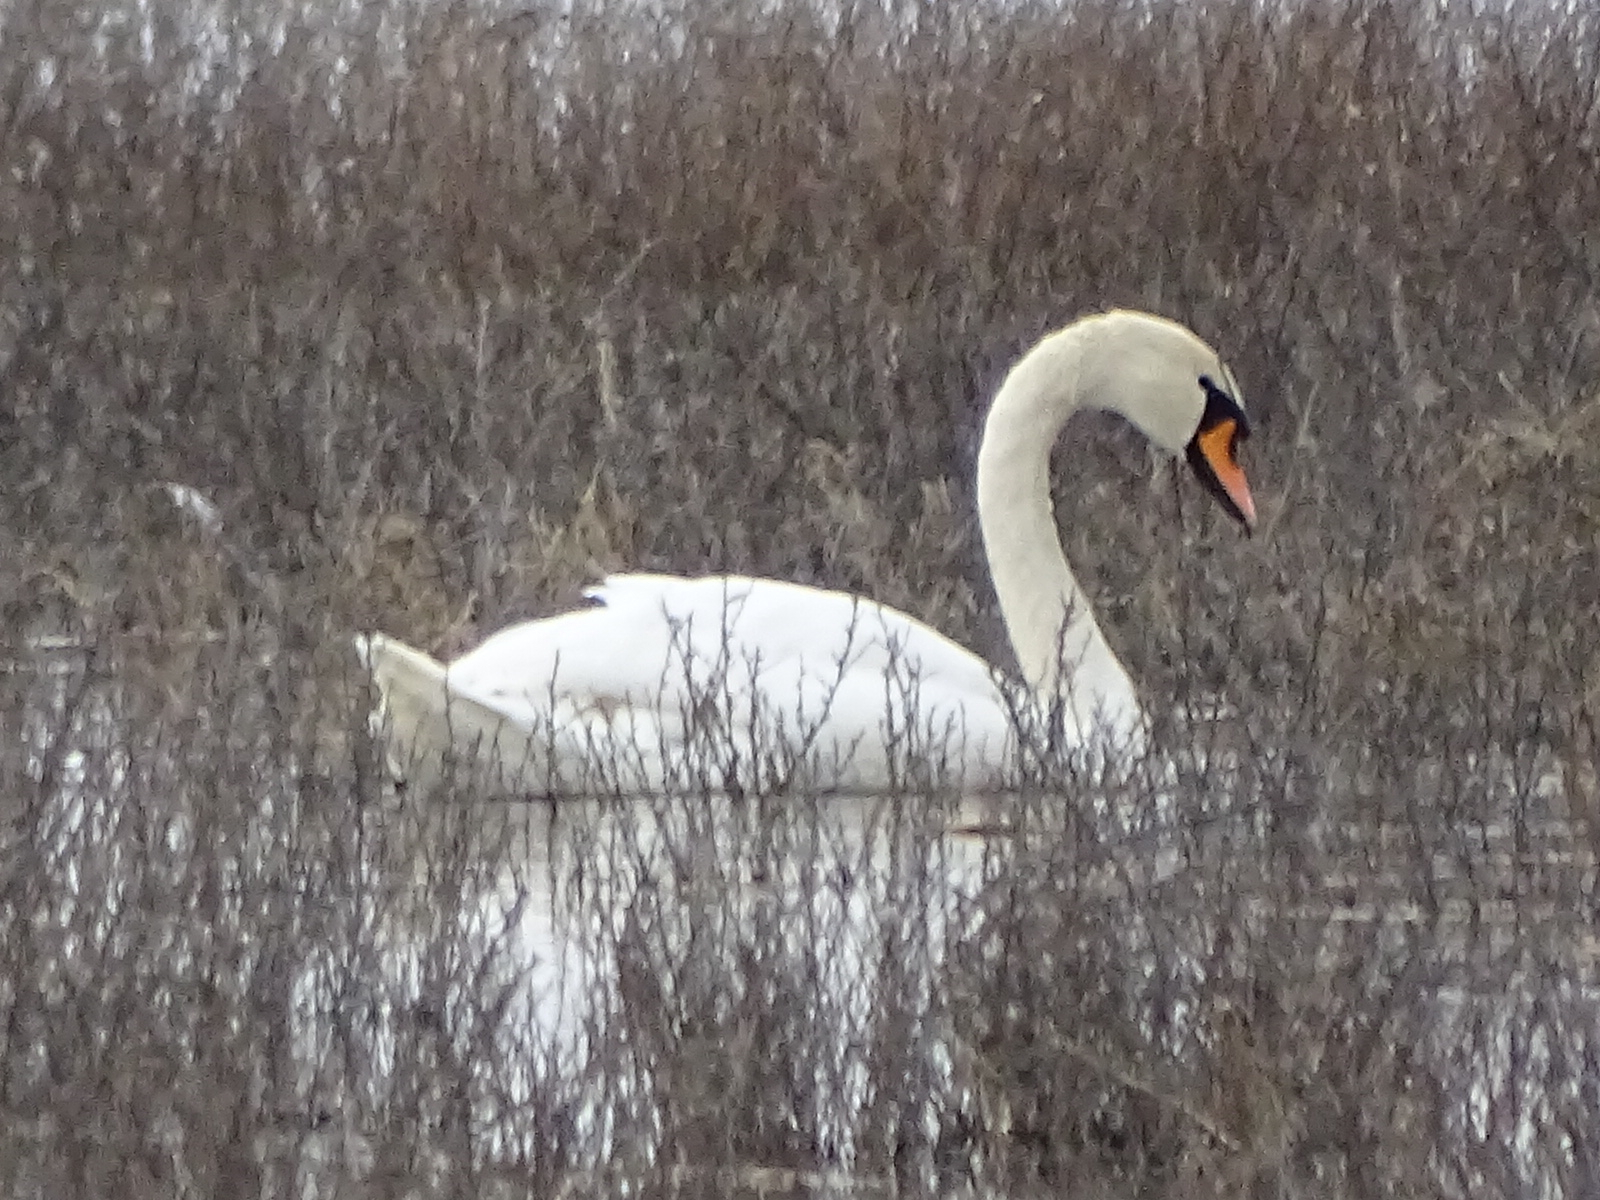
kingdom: Animalia
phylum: Chordata
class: Aves
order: Anseriformes
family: Anatidae
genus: Cygnus
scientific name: Cygnus olor
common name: Mute swan
